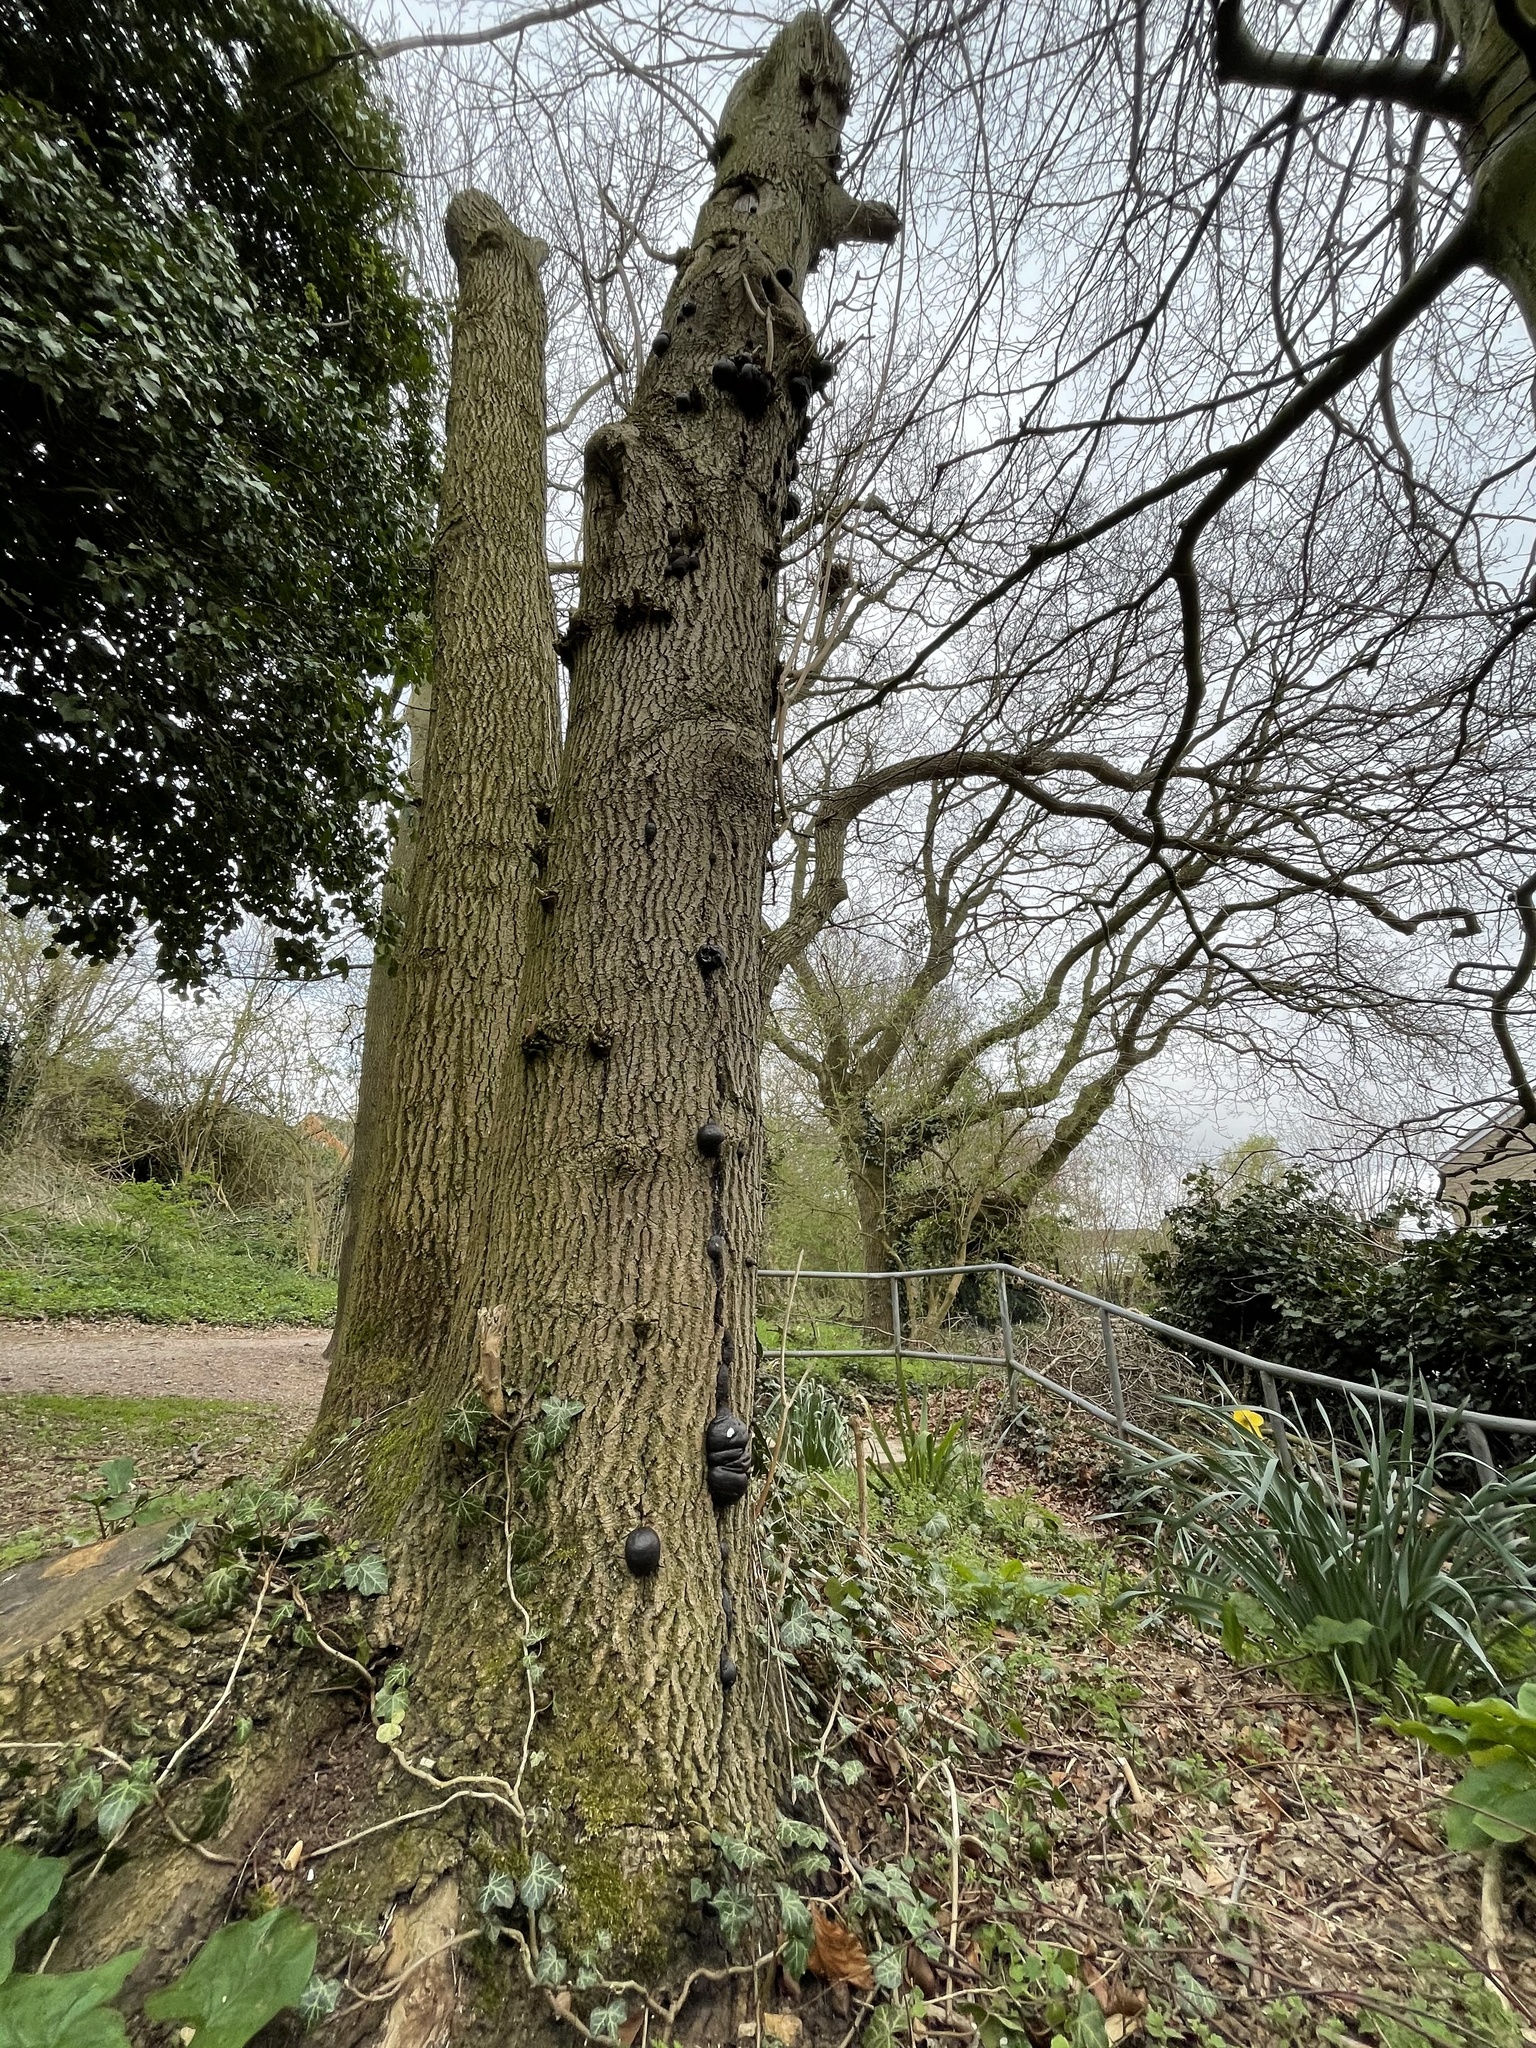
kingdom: Fungi
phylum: Ascomycota
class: Sordariomycetes
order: Xylariales
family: Hypoxylaceae
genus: Daldinia
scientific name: Daldinia concentrica
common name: Cramp balls
